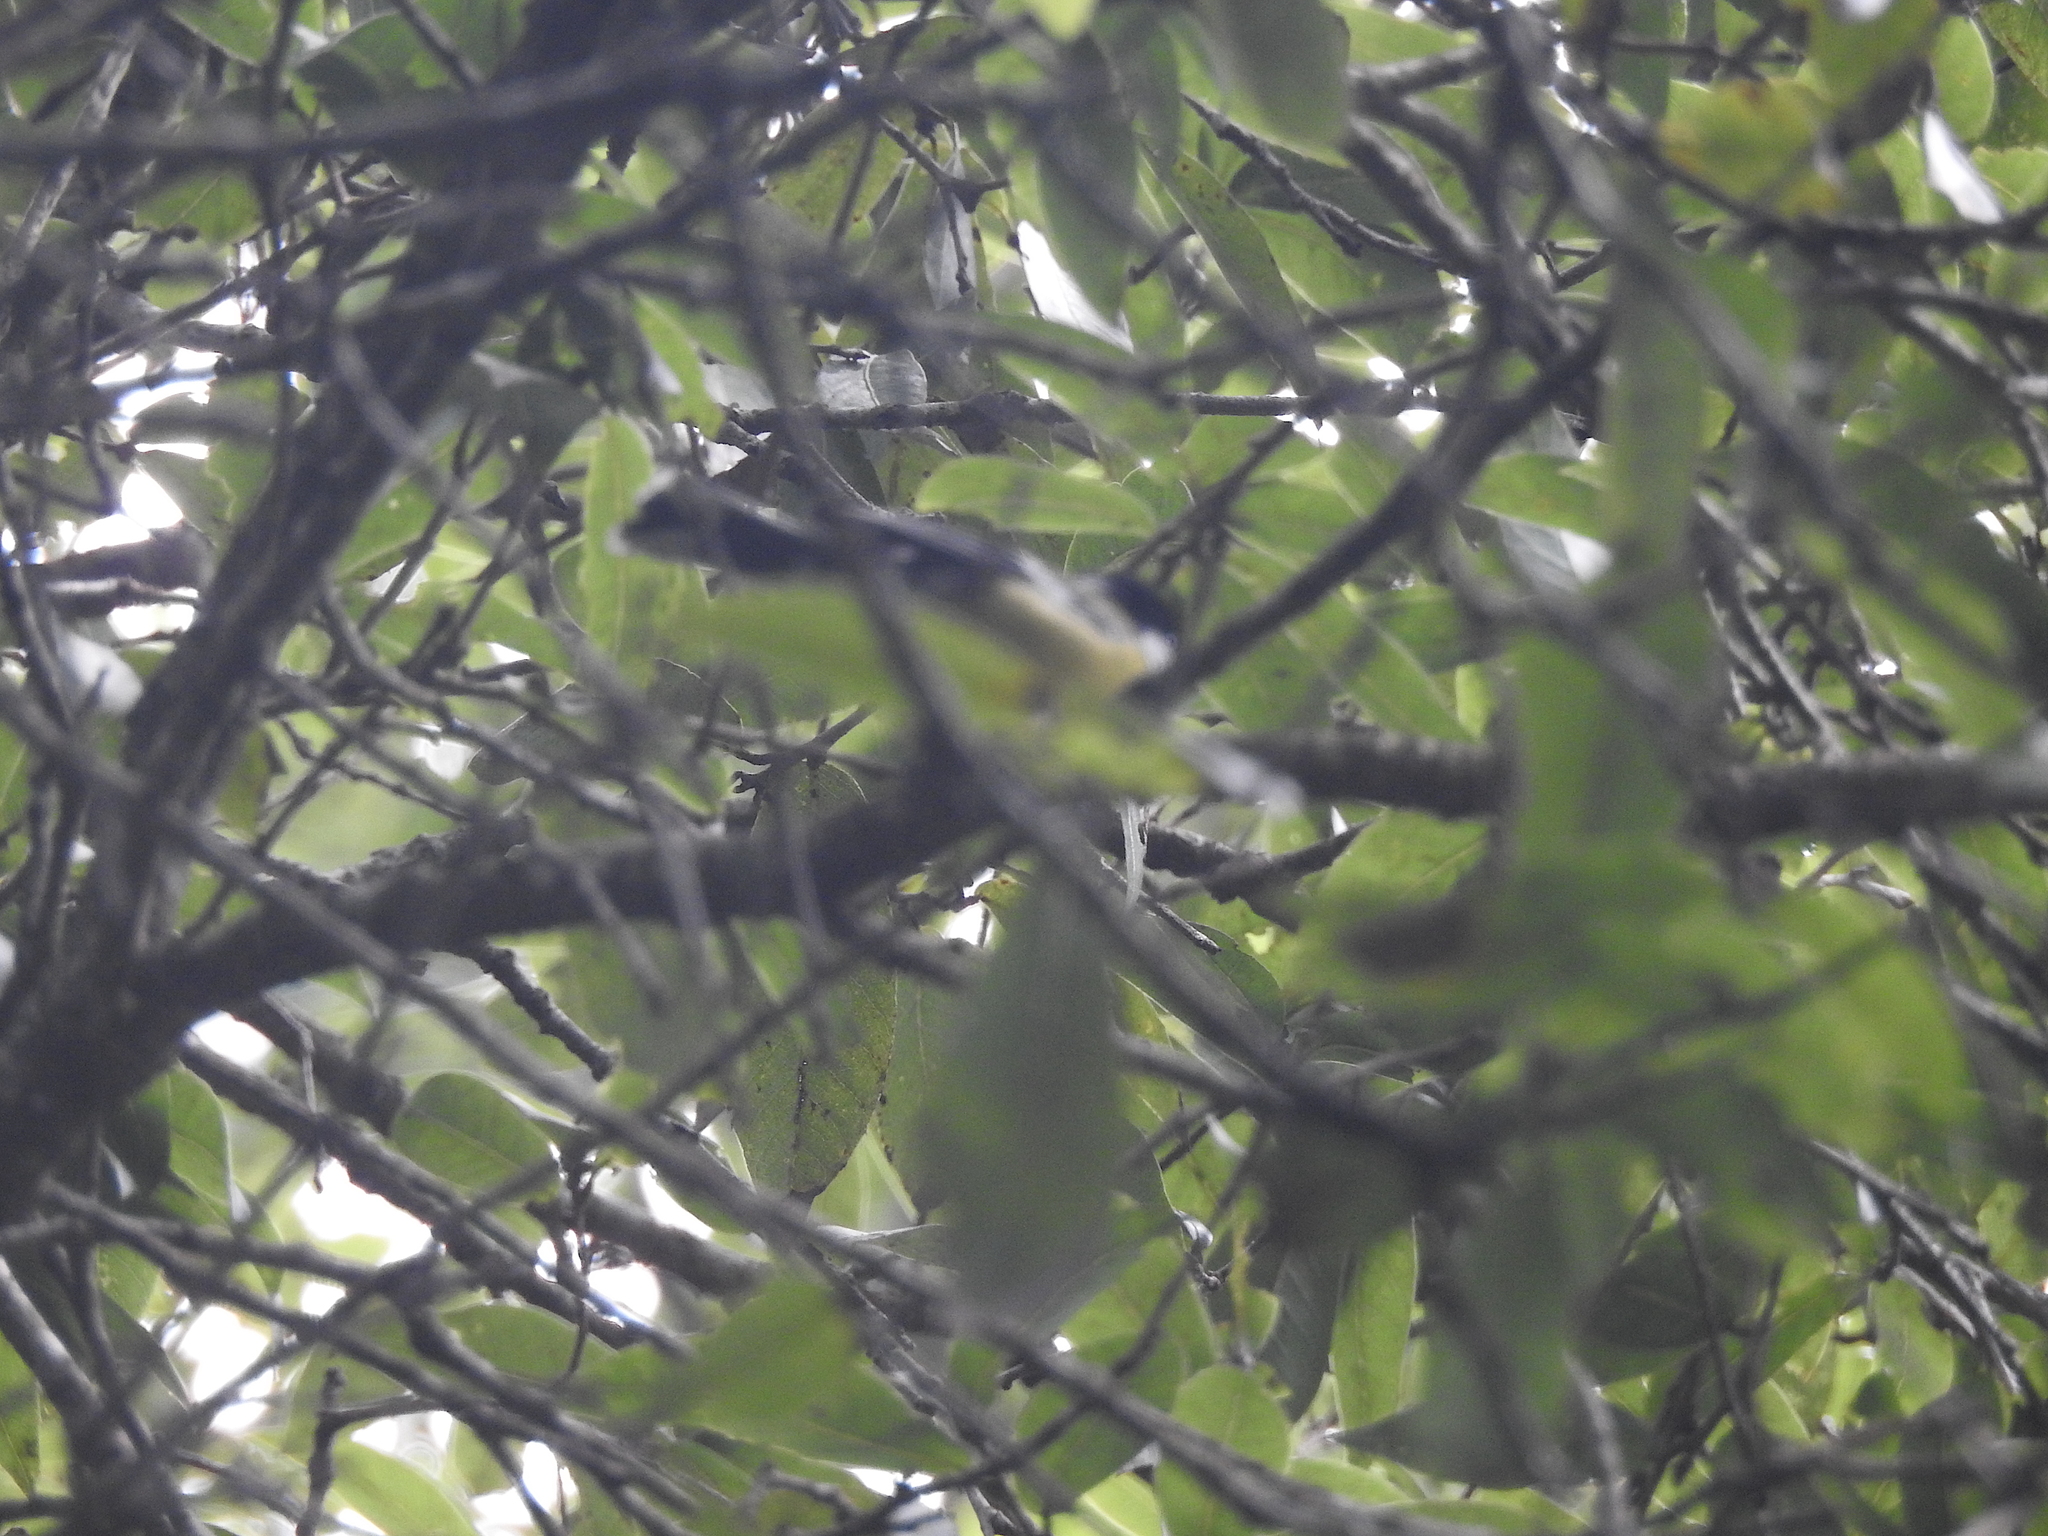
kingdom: Animalia
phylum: Chordata
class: Aves
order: Passeriformes
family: Paridae
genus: Parus
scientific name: Parus monticolus
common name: Green-backed tit
